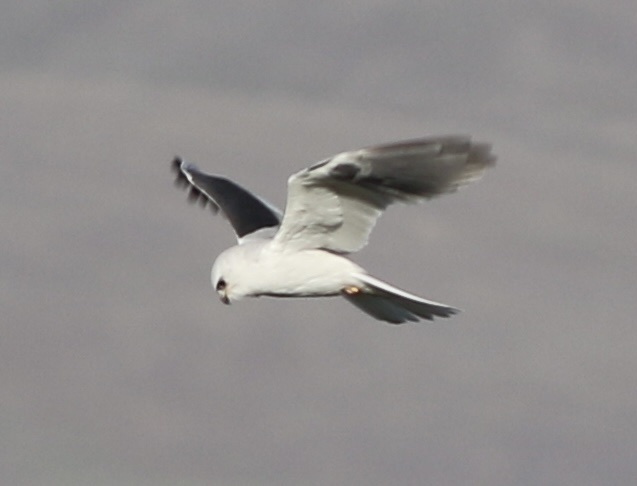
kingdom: Animalia
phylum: Chordata
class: Aves
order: Accipitriformes
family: Accipitridae
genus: Elanus
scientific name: Elanus leucurus
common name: White-tailed kite
